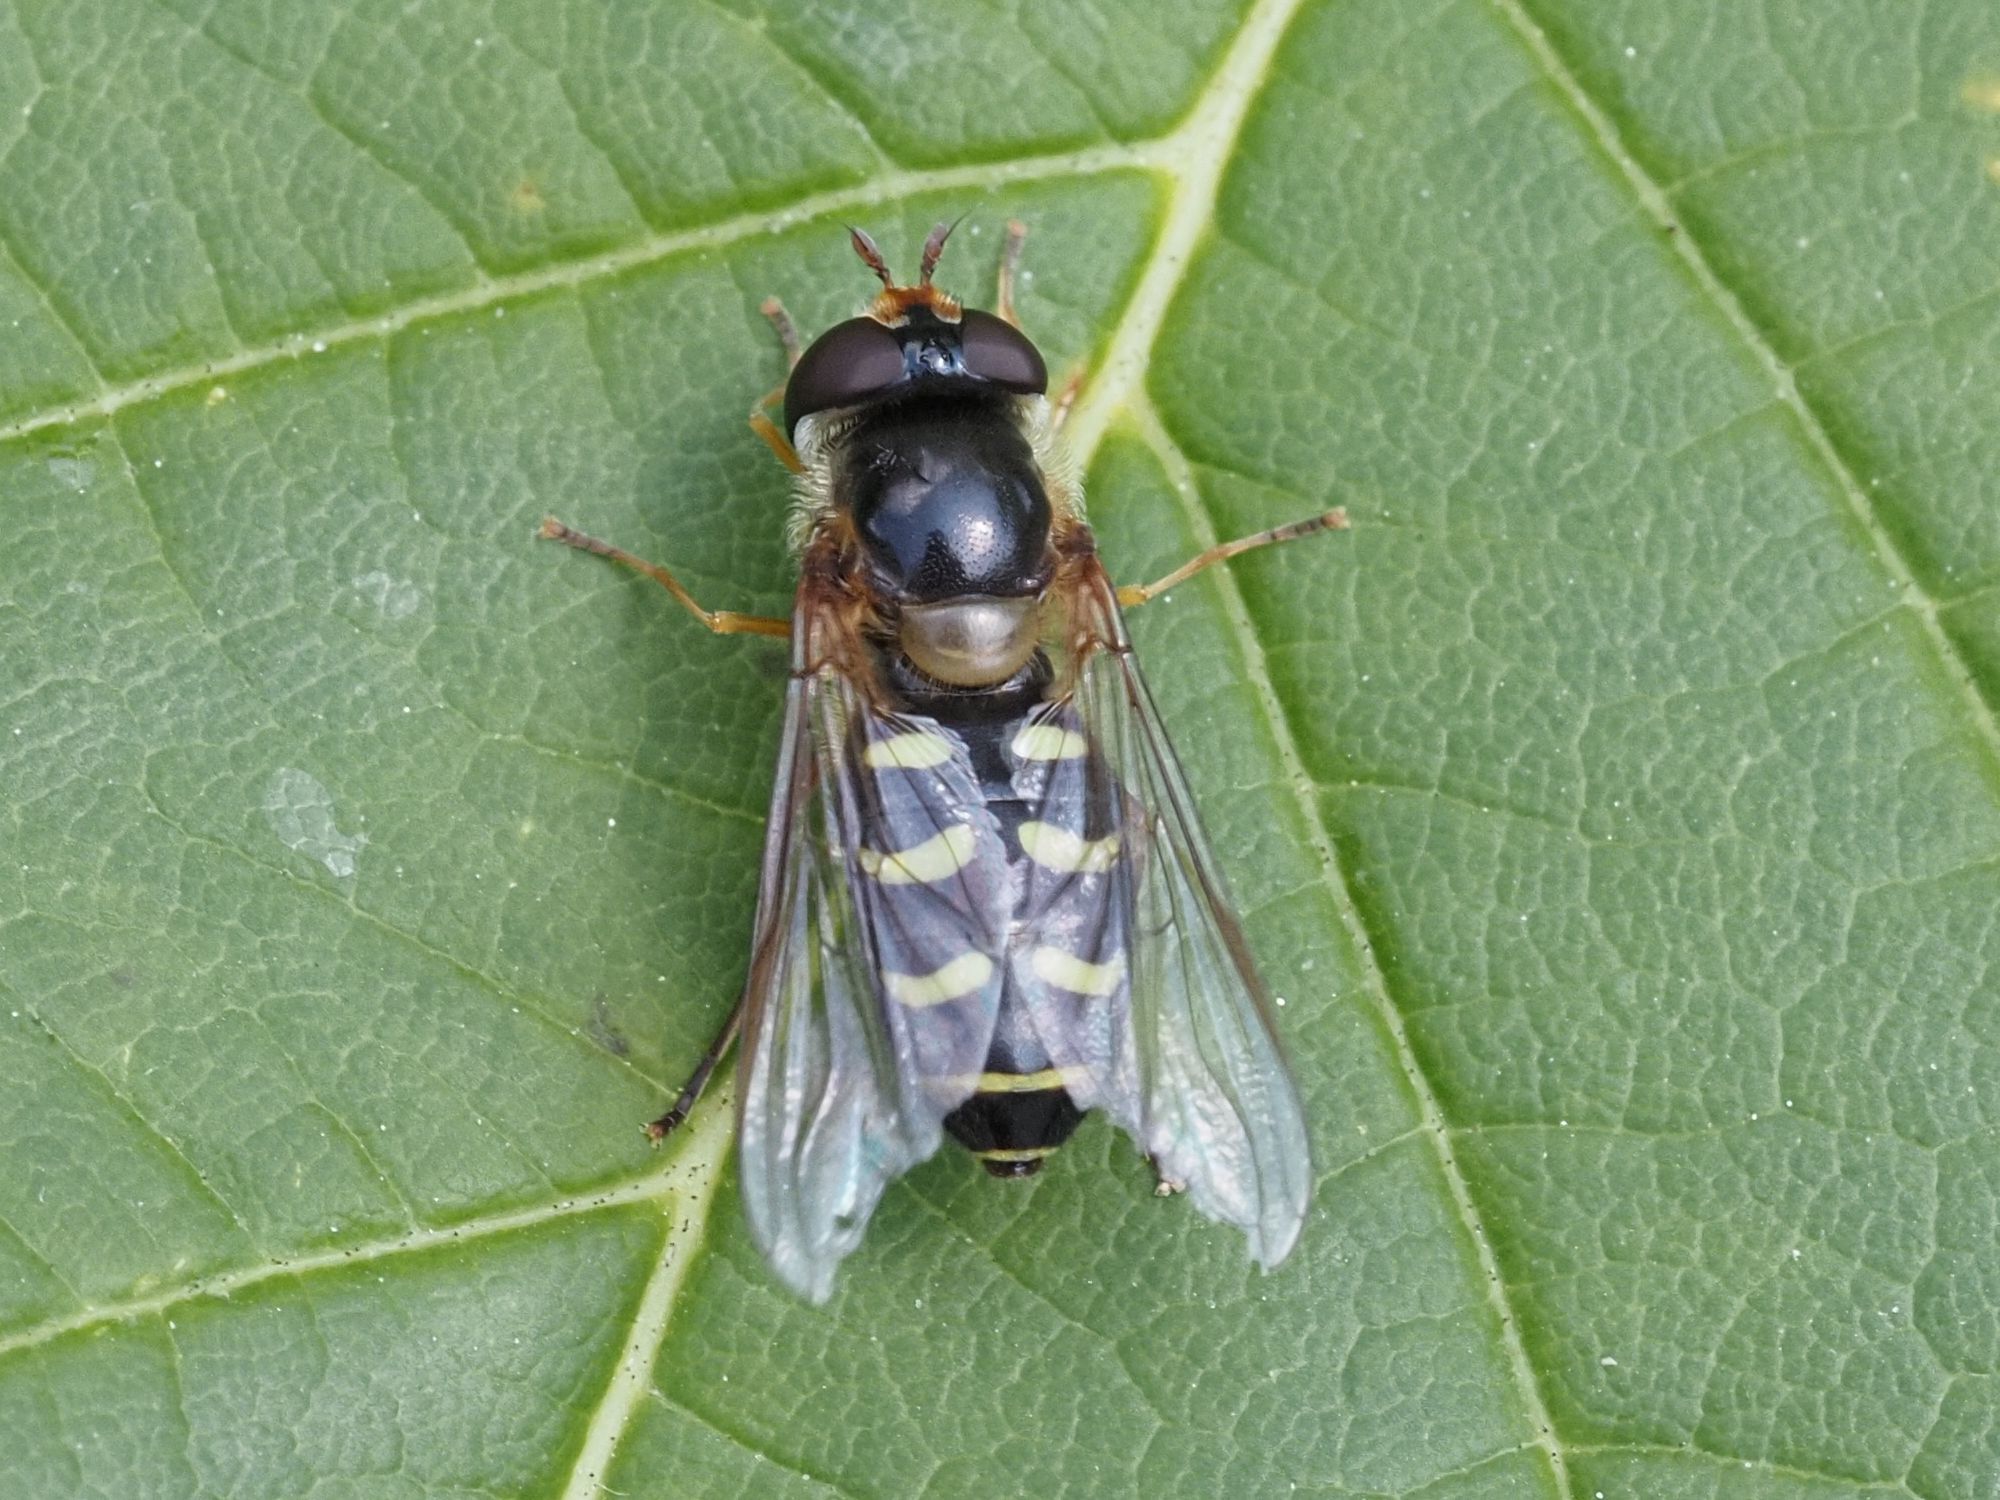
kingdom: Animalia
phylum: Arthropoda
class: Insecta
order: Diptera
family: Syrphidae
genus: Lapposyrphus
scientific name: Lapposyrphus lapponicus
